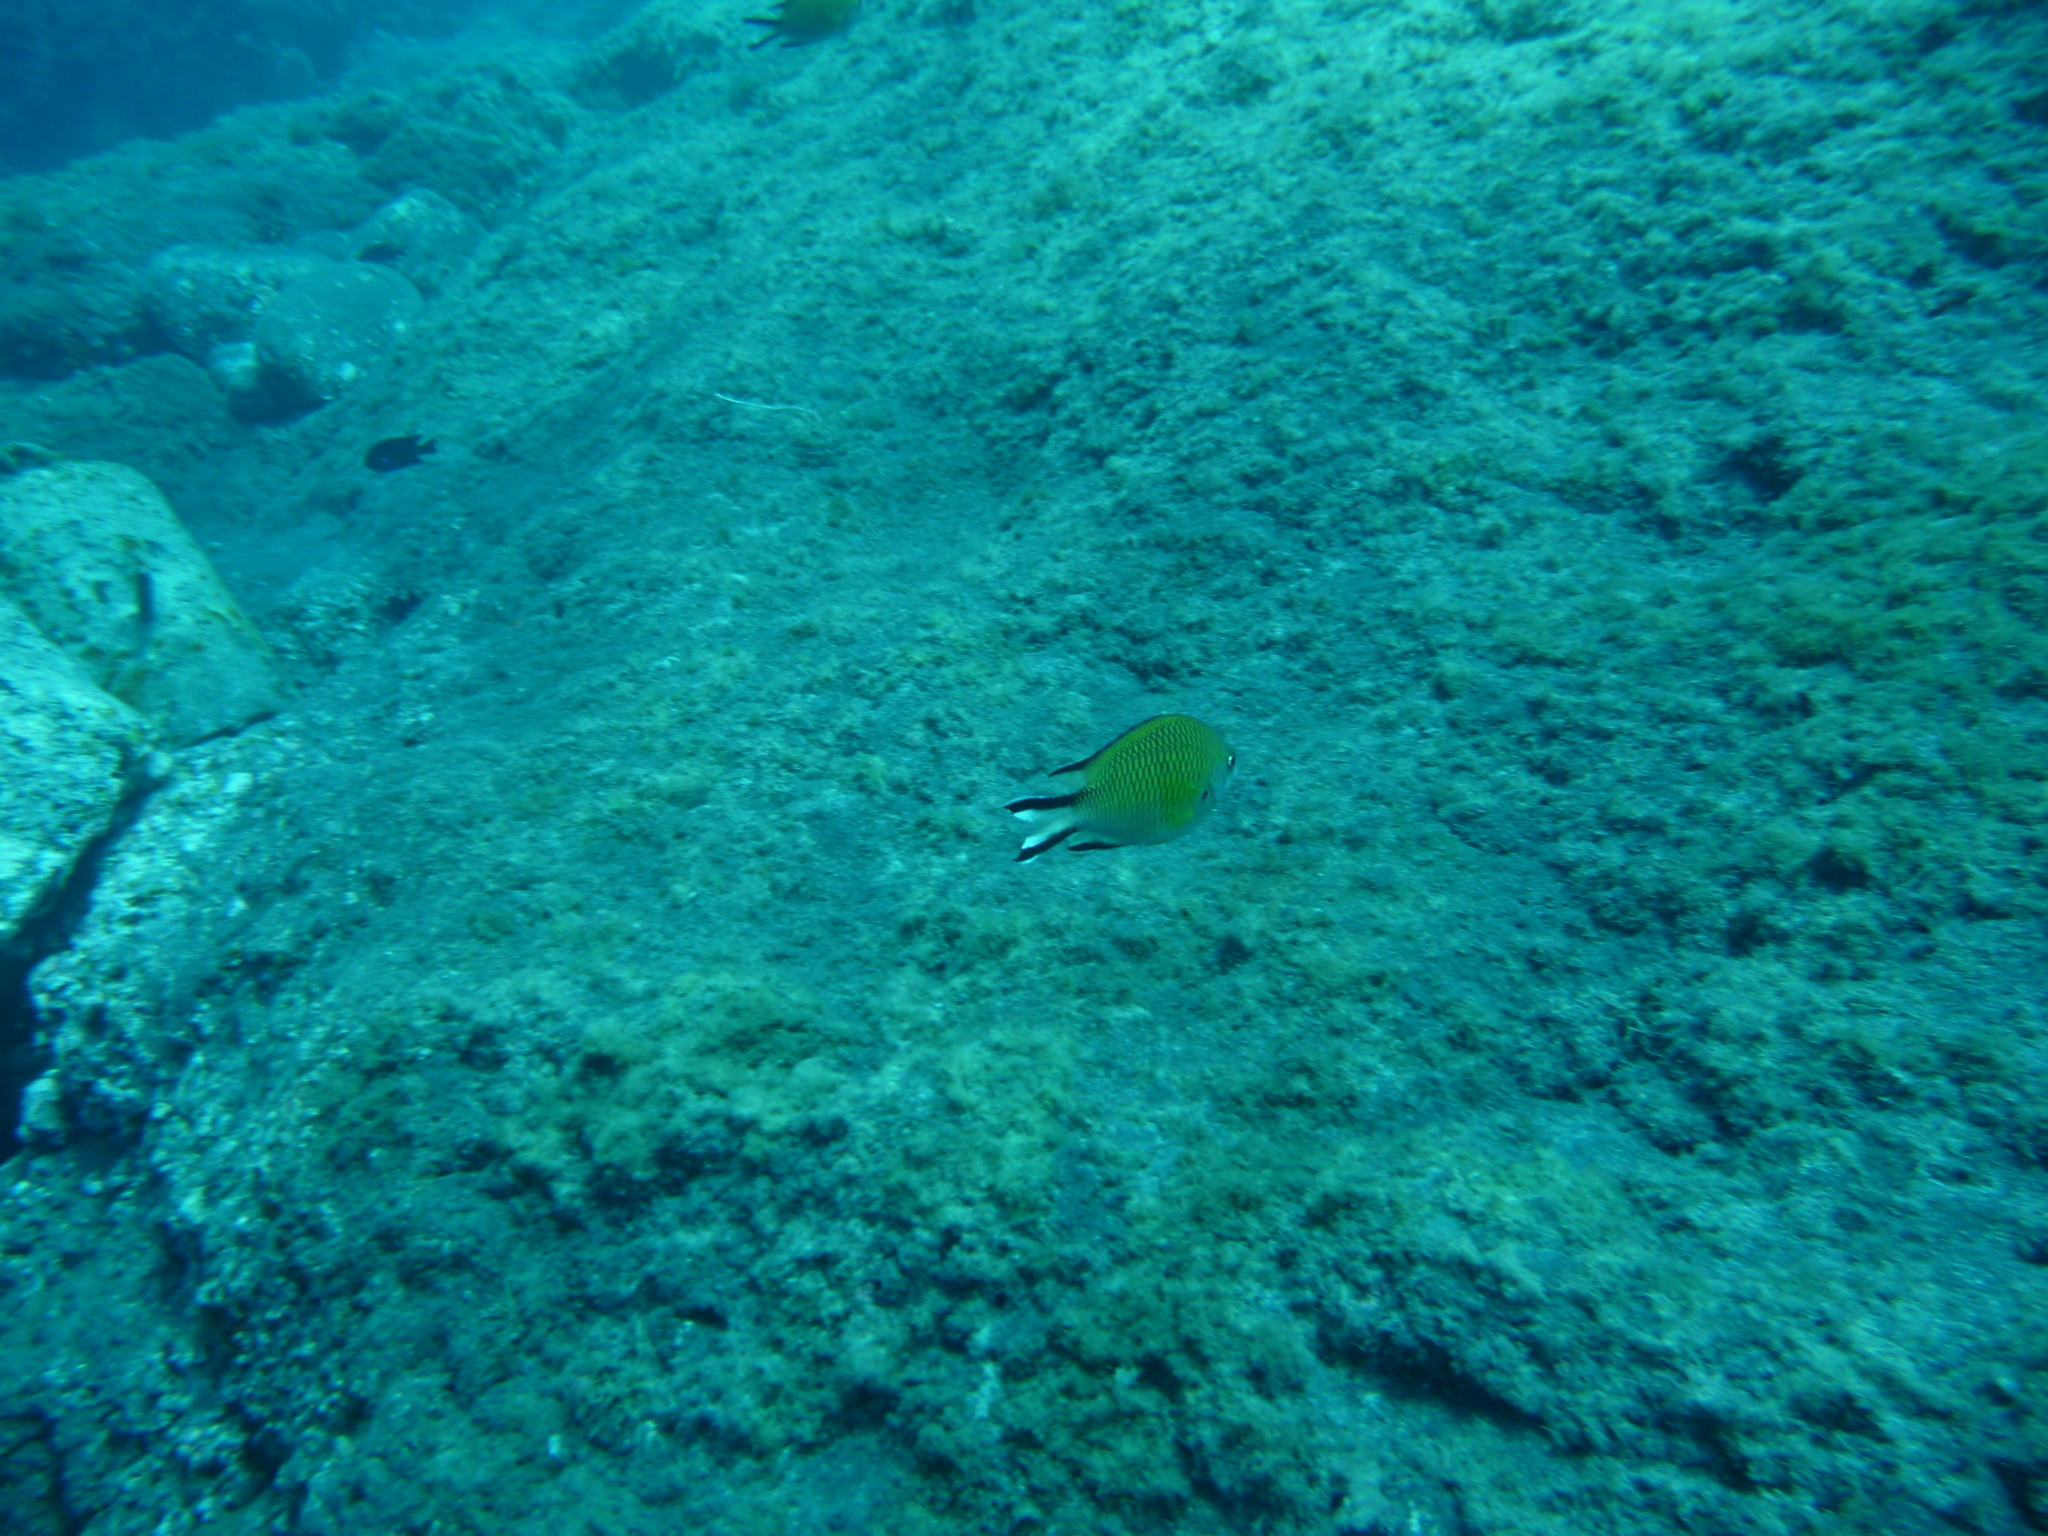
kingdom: Animalia
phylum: Chordata
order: Perciformes
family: Pomacentridae
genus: Chromis
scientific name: Chromis limbata
